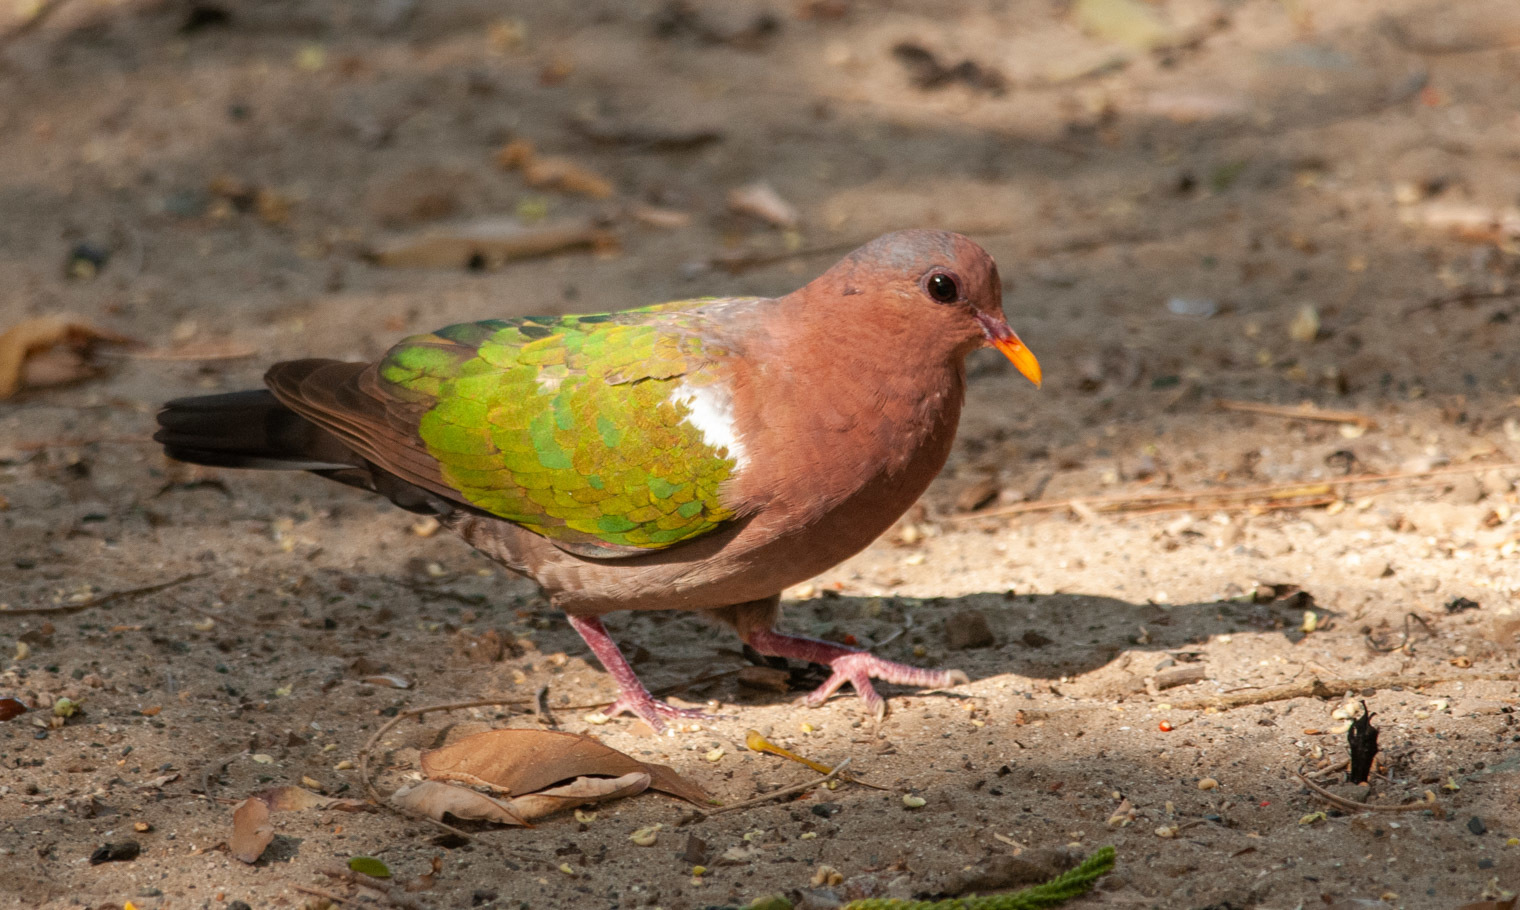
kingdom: Animalia
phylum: Chordata
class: Aves
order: Columbiformes
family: Columbidae
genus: Chalcophaps
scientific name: Chalcophaps longirostris
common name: Pacific emerald dove
